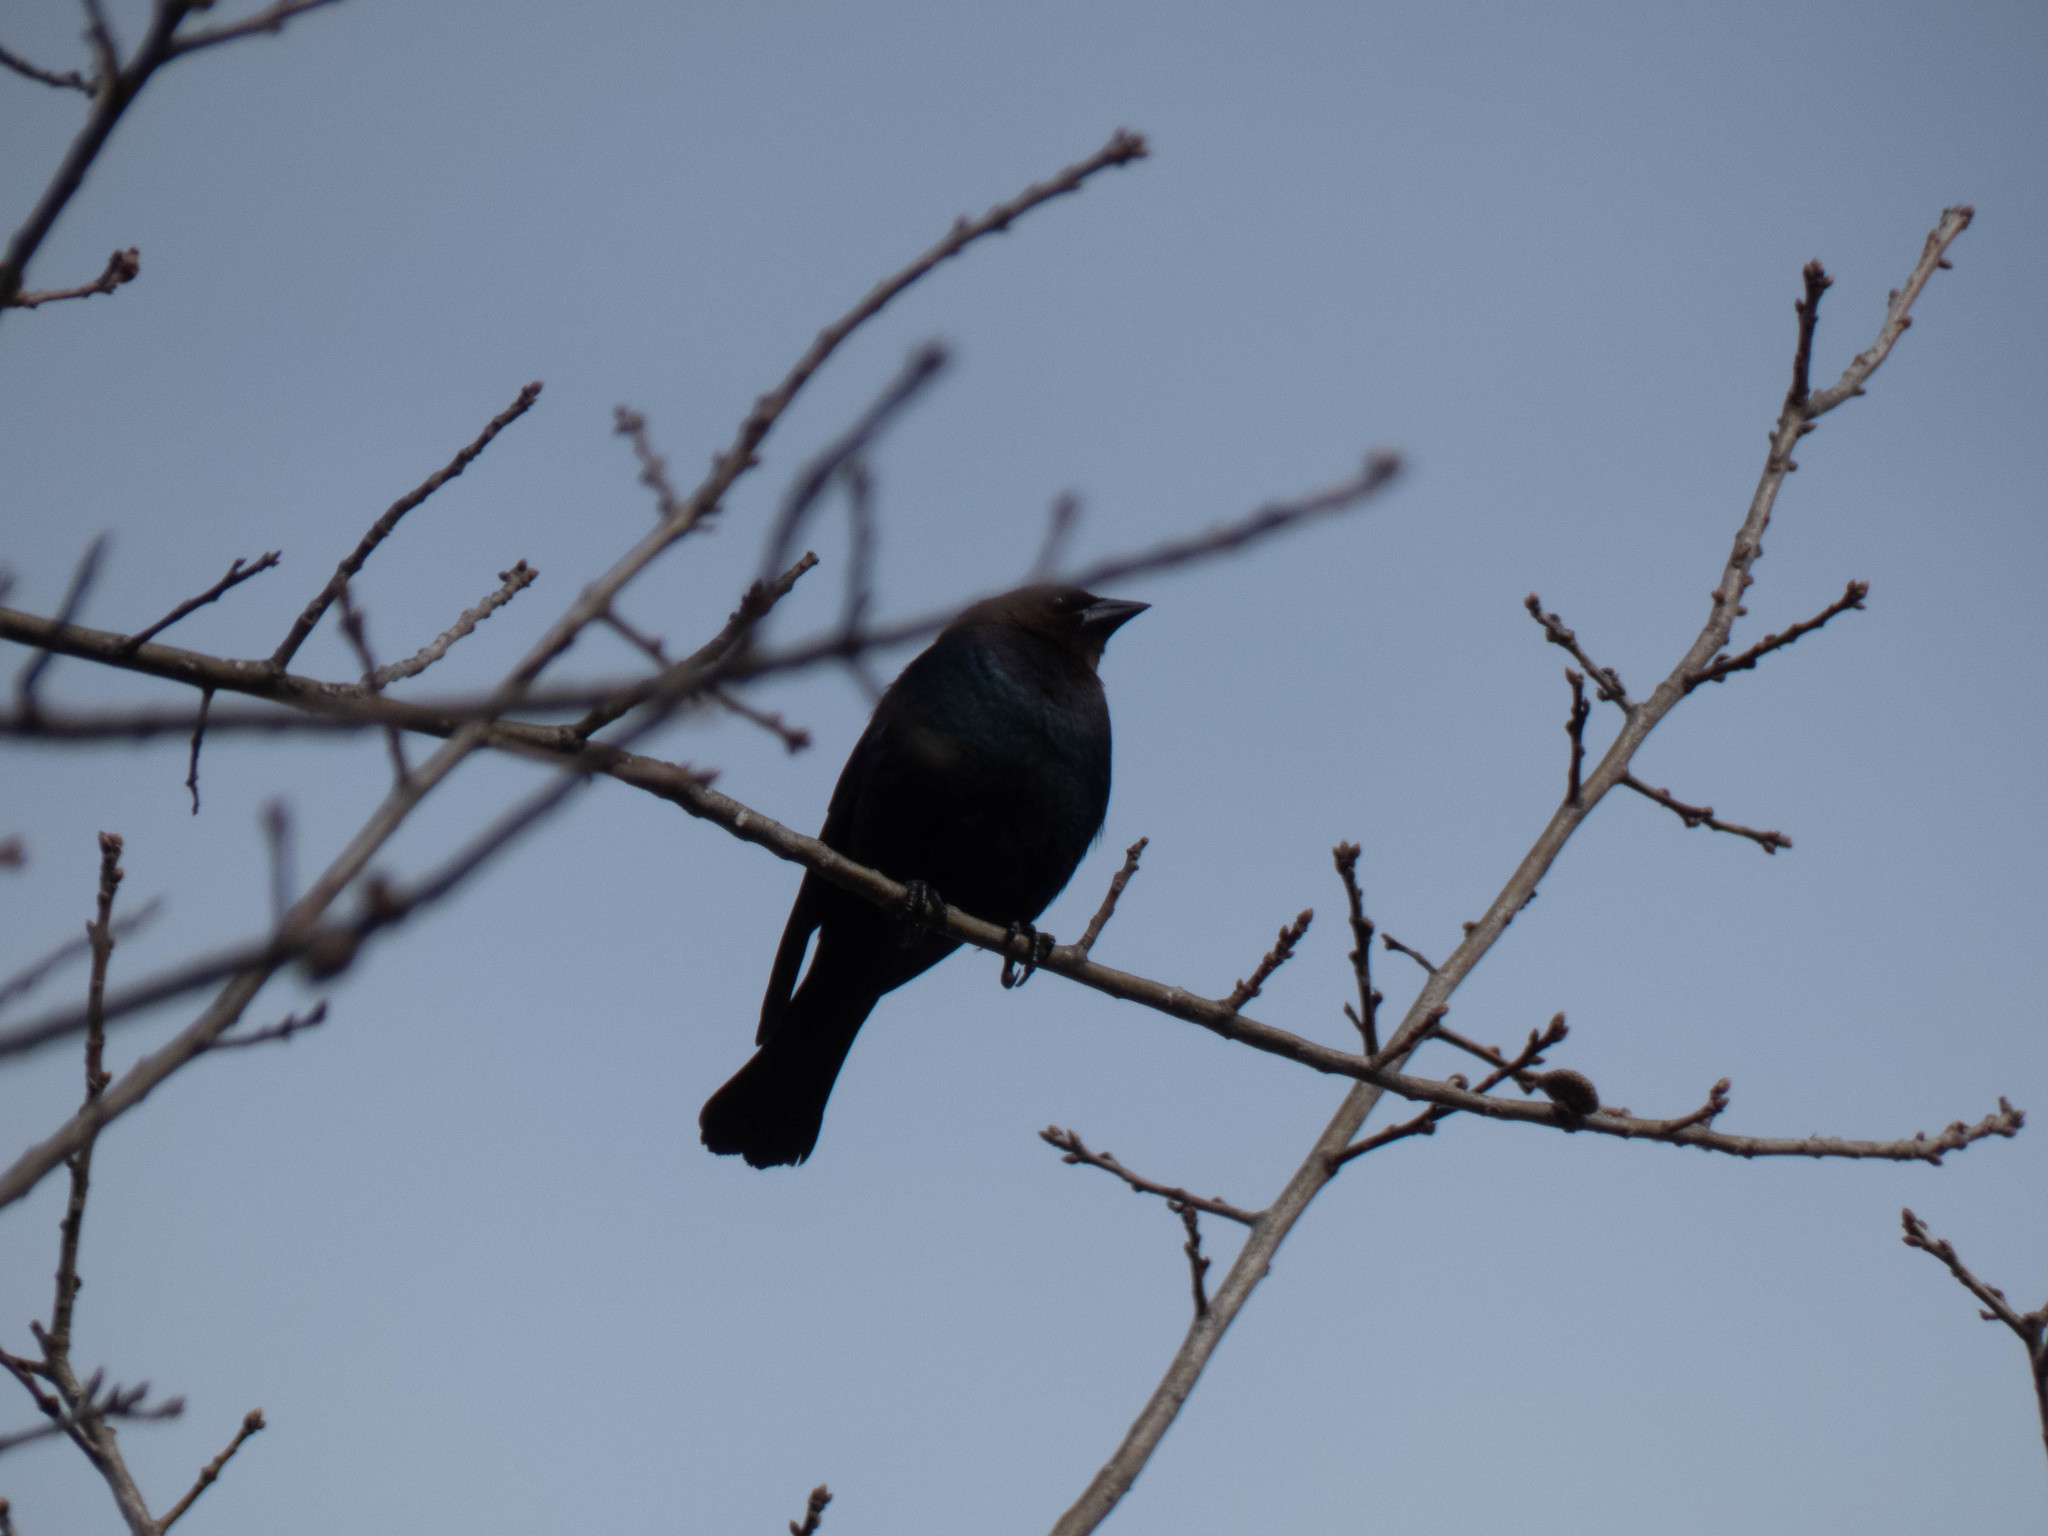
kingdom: Animalia
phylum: Chordata
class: Aves
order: Passeriformes
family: Icteridae
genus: Molothrus
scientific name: Molothrus ater
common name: Brown-headed cowbird
